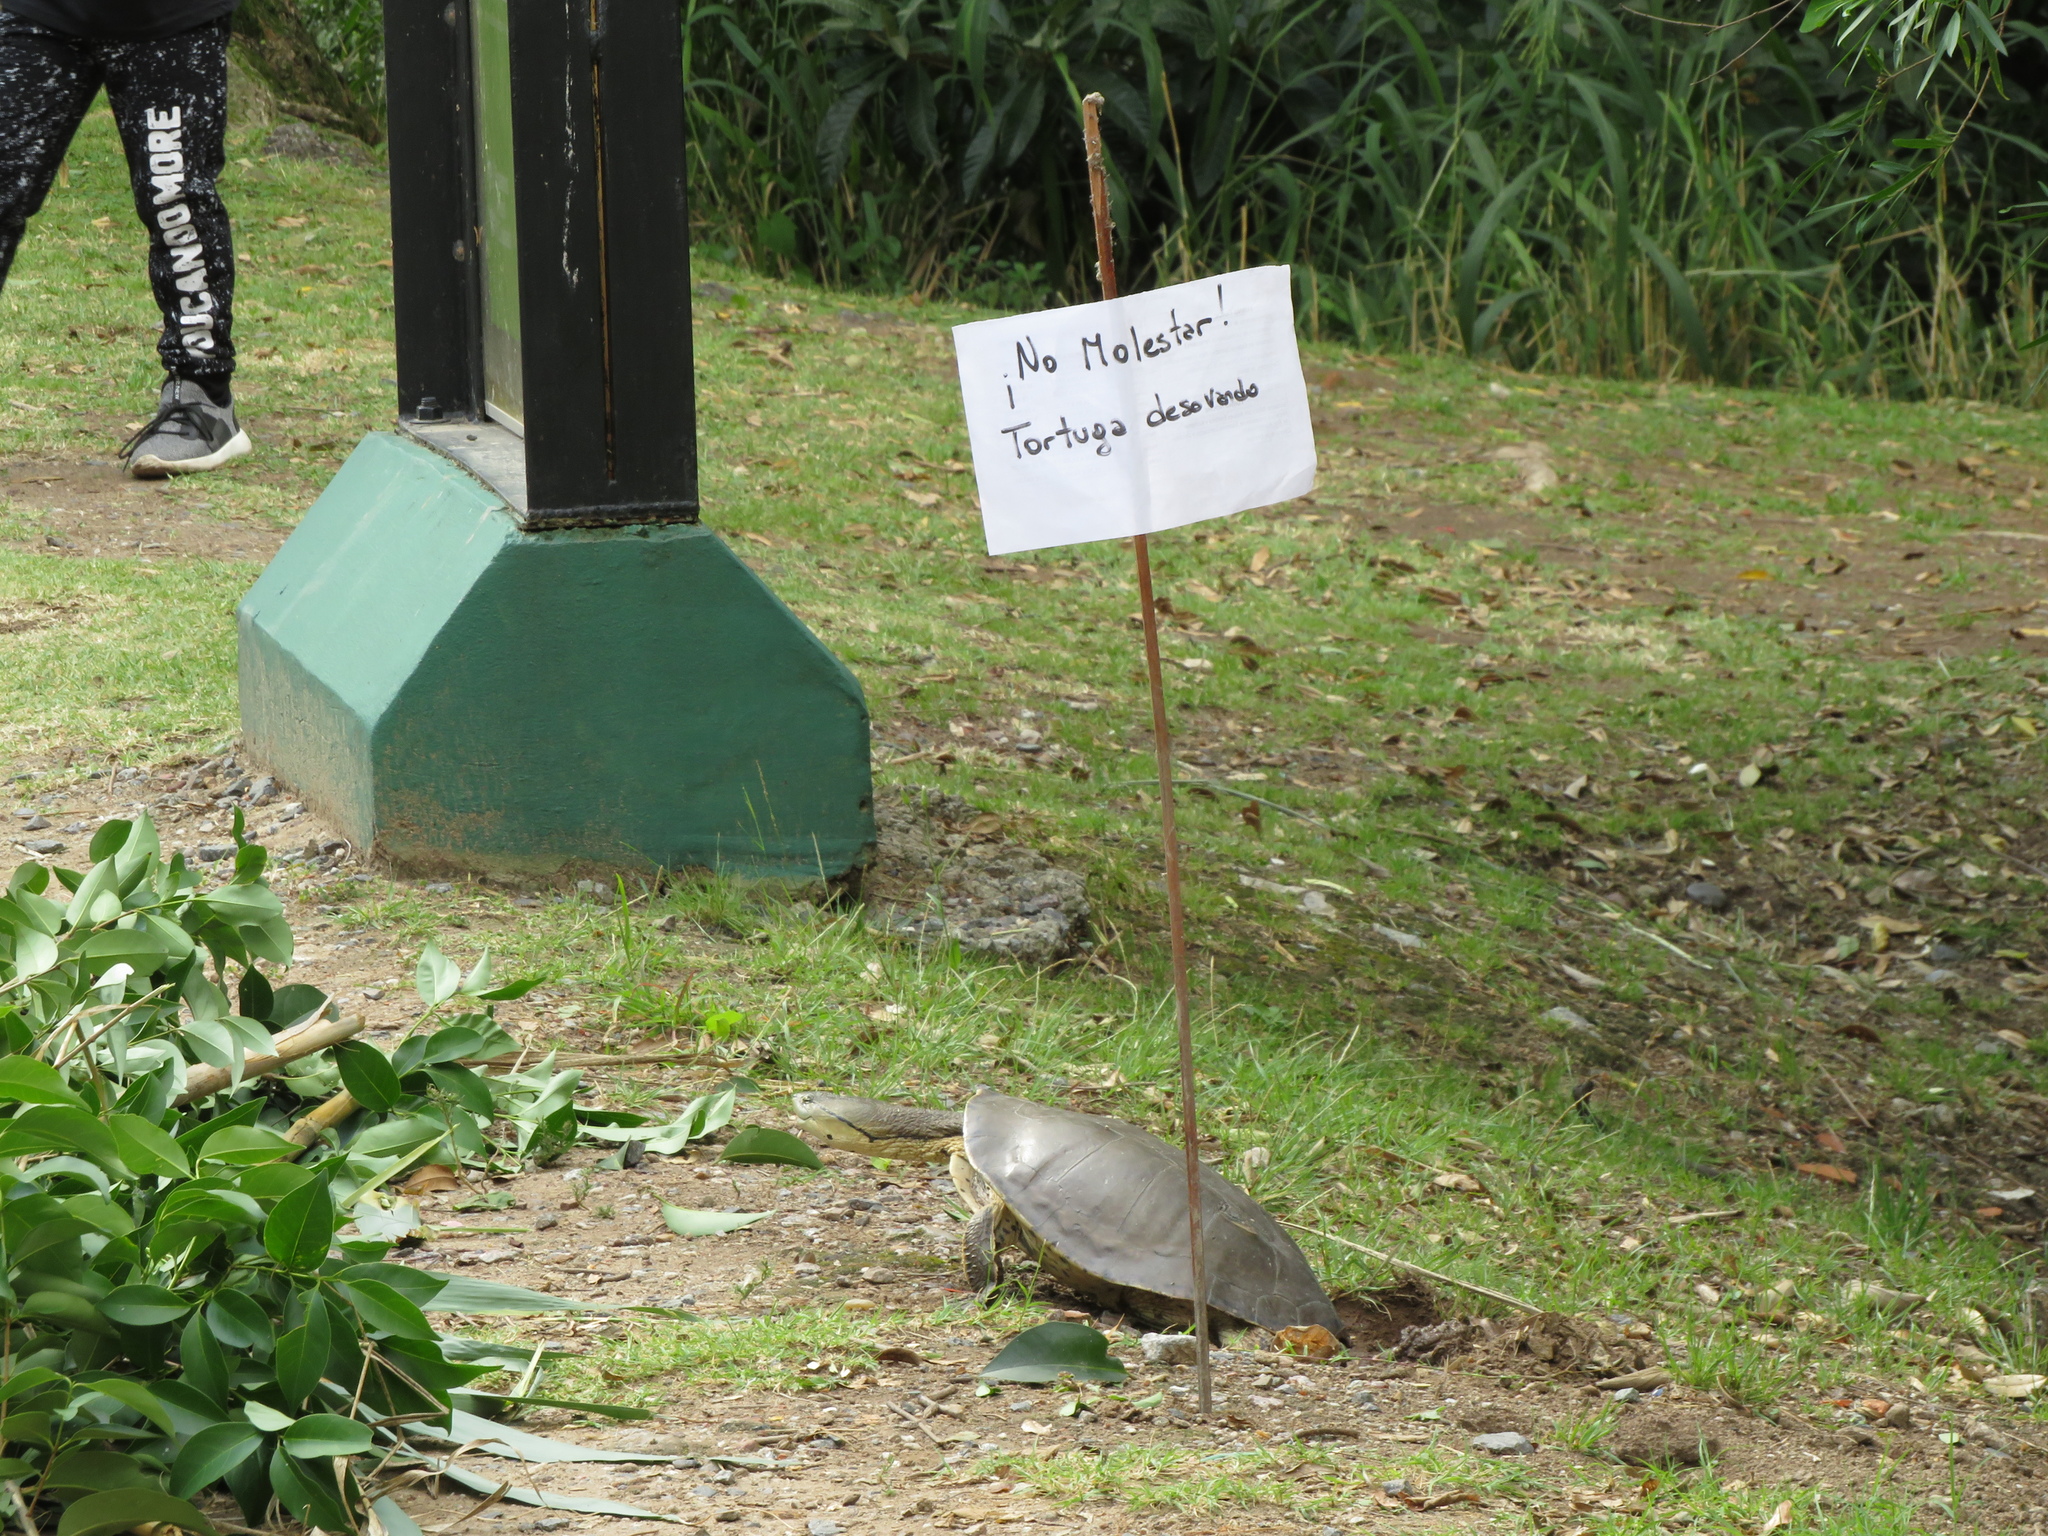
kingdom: Animalia
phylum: Chordata
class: Testudines
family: Chelidae
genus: Phrynops
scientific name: Phrynops hilarii
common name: Side-necked turtle of saint hillaire
